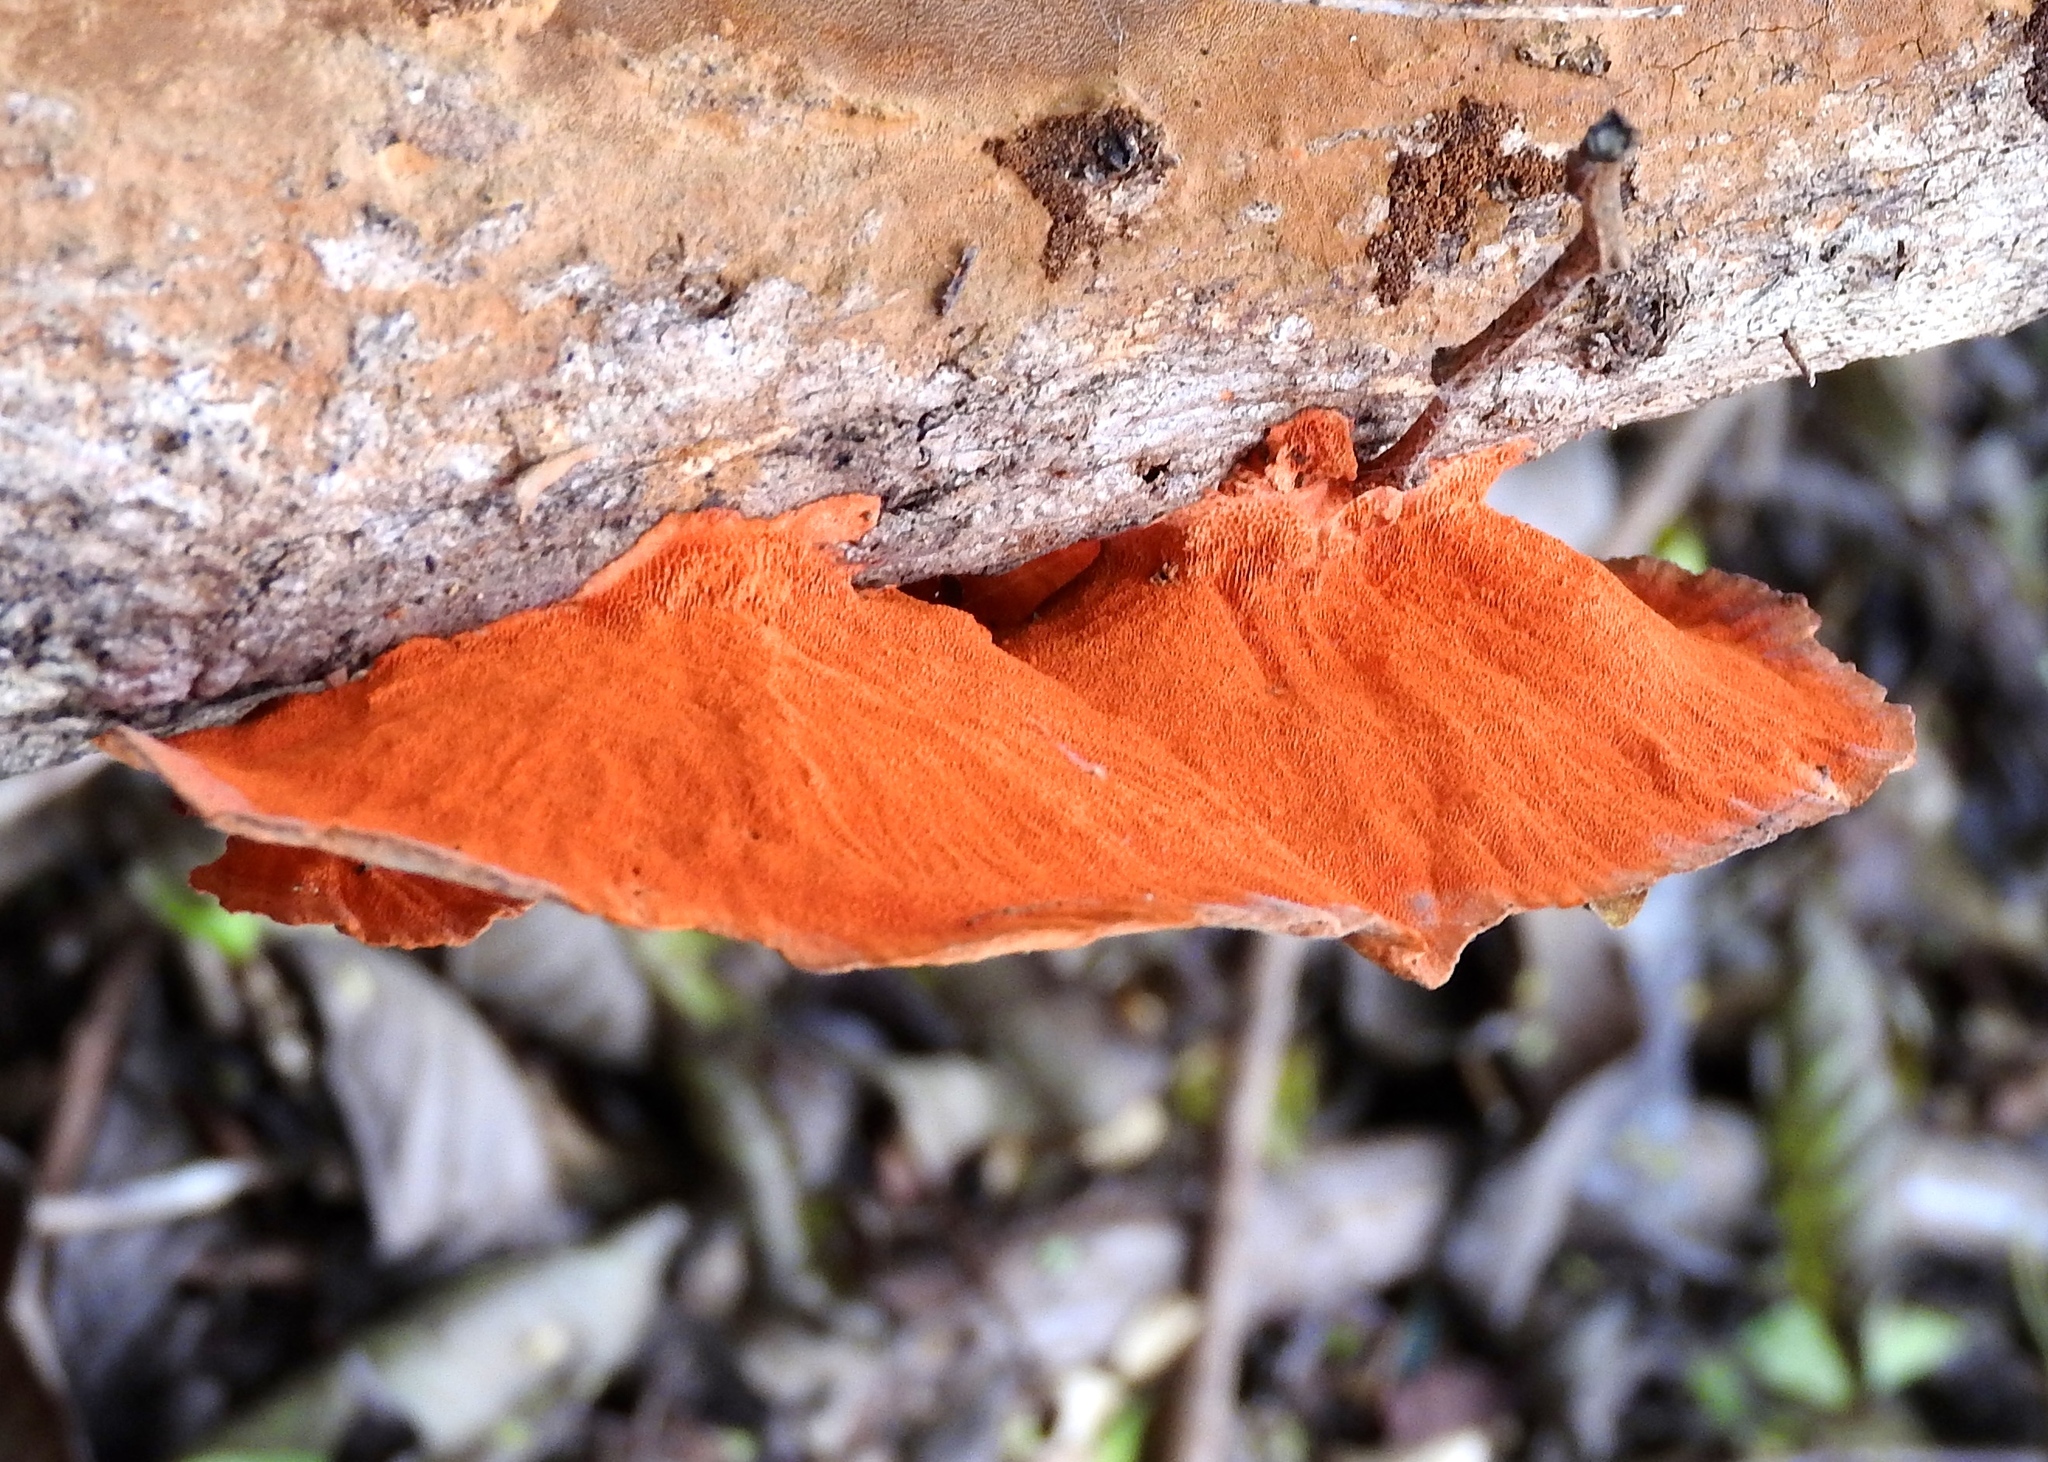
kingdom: Fungi
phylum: Basidiomycota
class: Agaricomycetes
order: Polyporales
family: Polyporaceae
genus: Trametes
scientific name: Trametes
